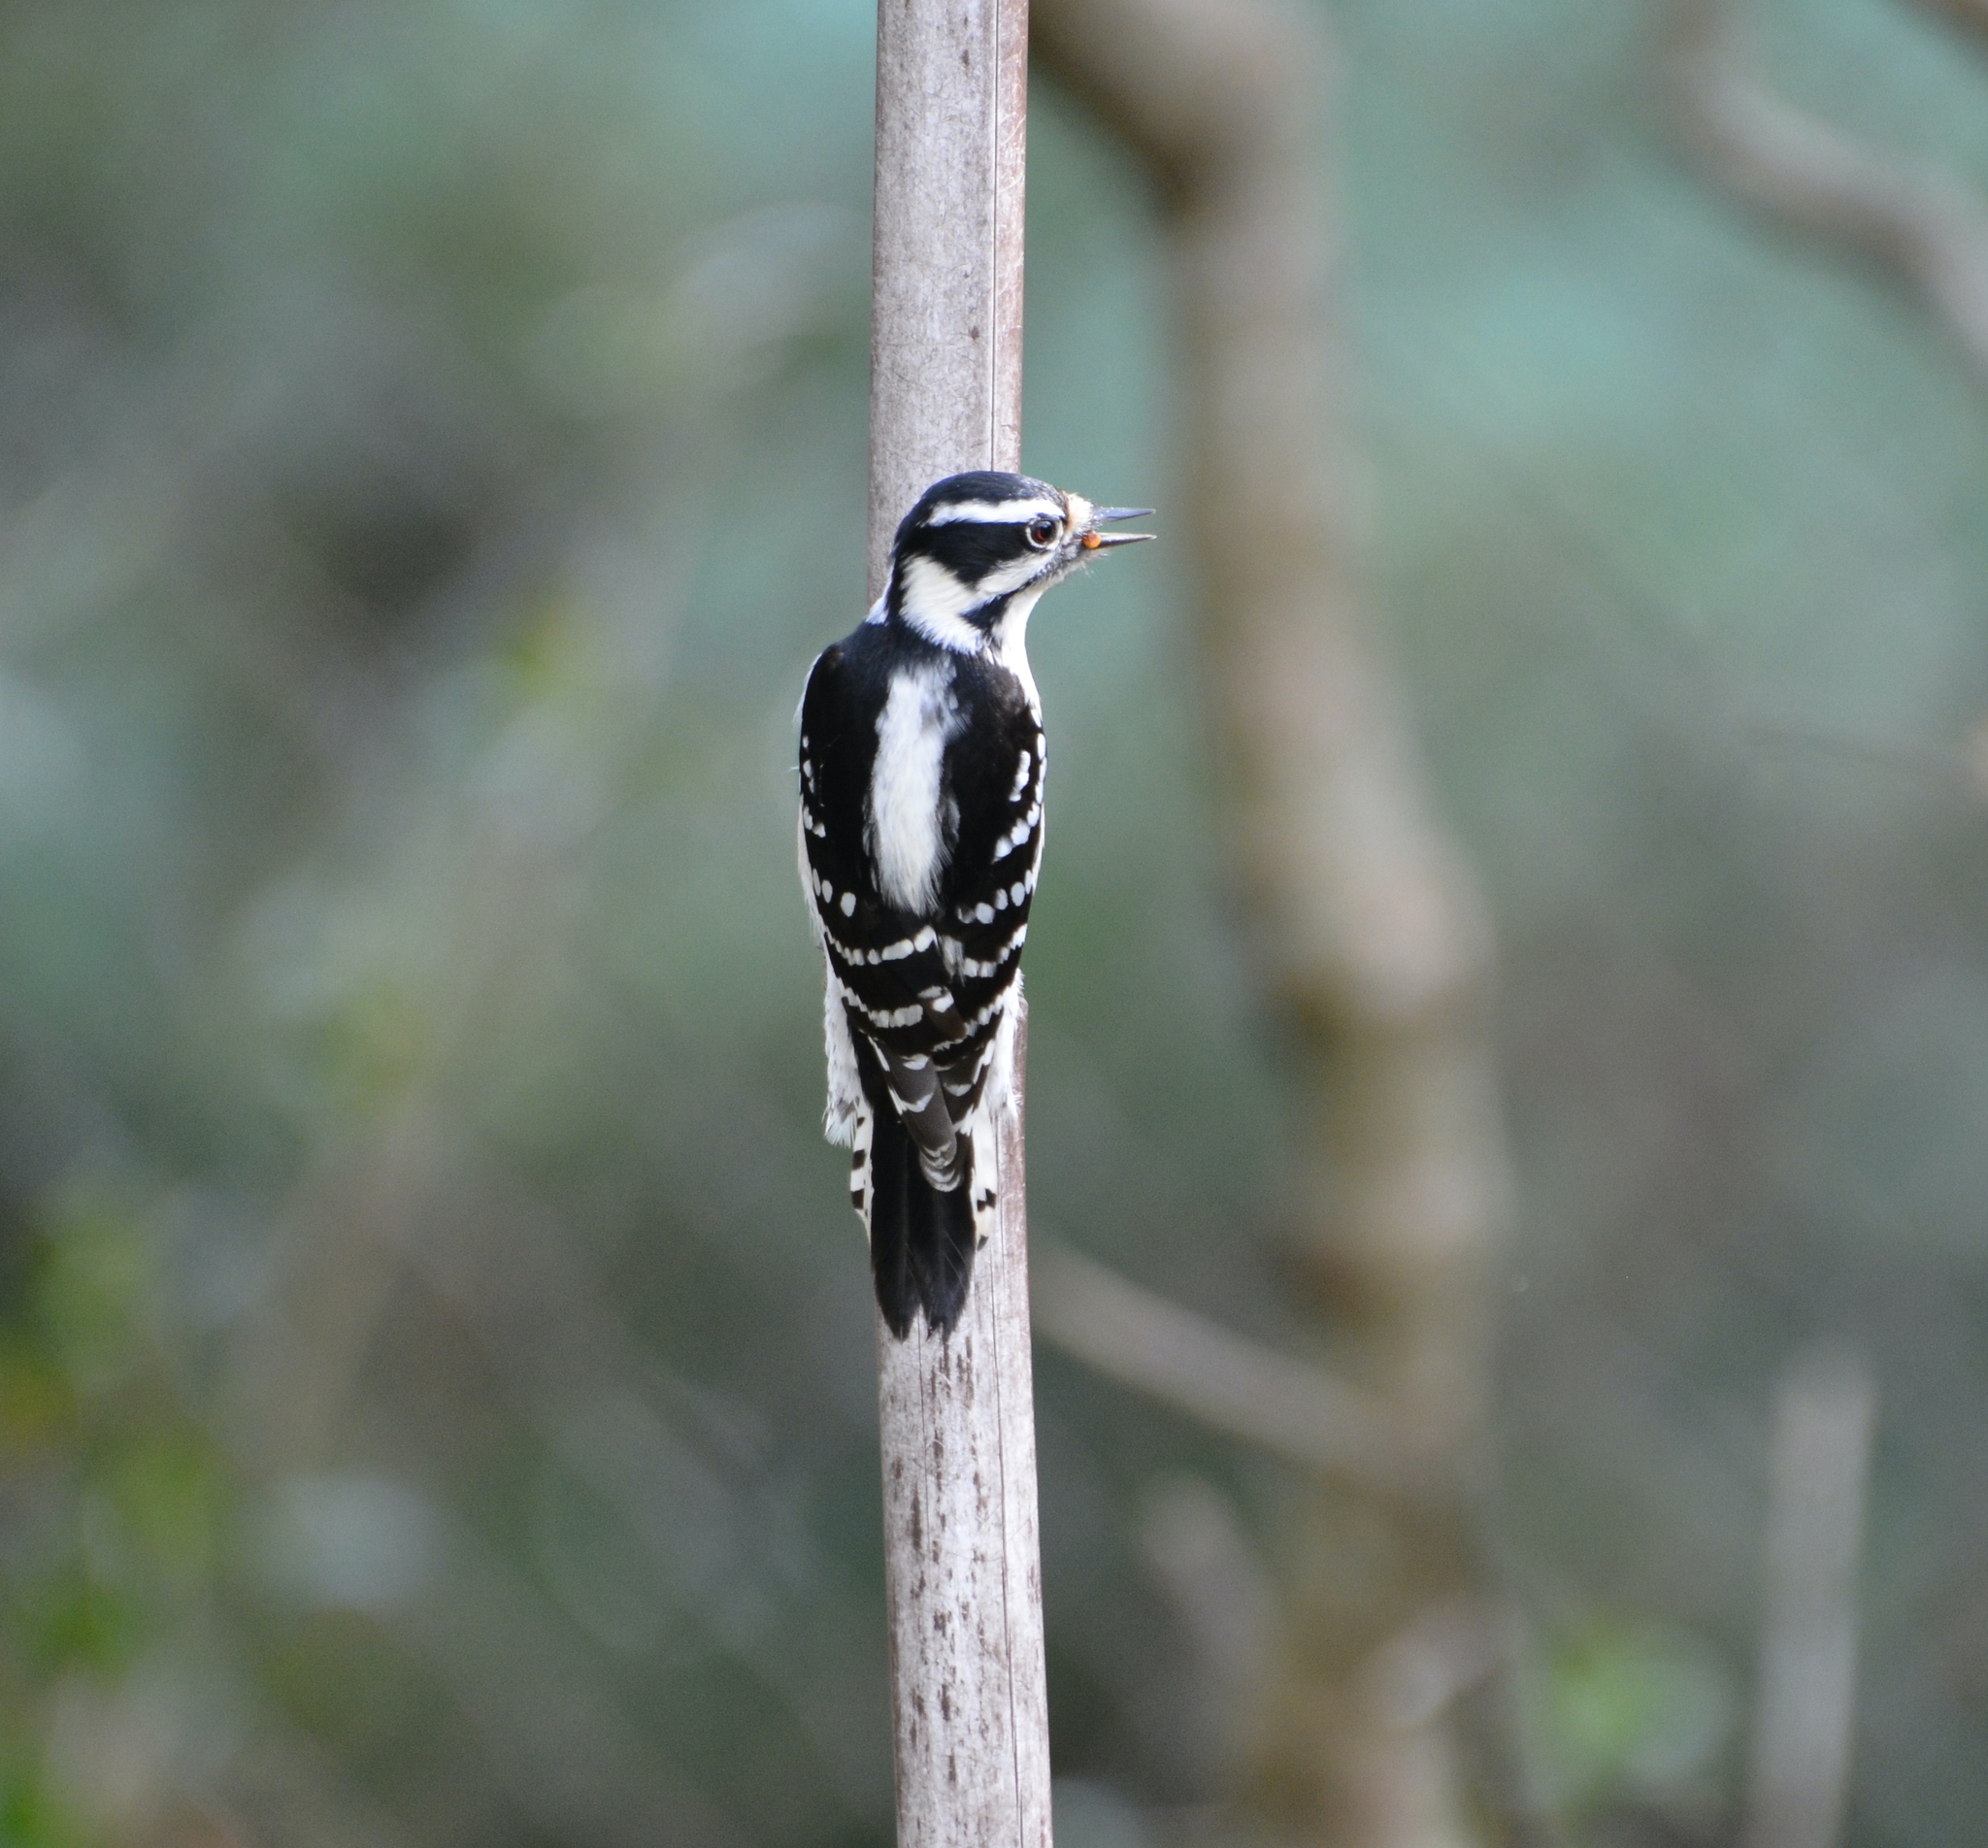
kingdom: Animalia
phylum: Chordata
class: Aves
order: Piciformes
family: Picidae
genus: Dryobates
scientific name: Dryobates pubescens
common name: Downy woodpecker
